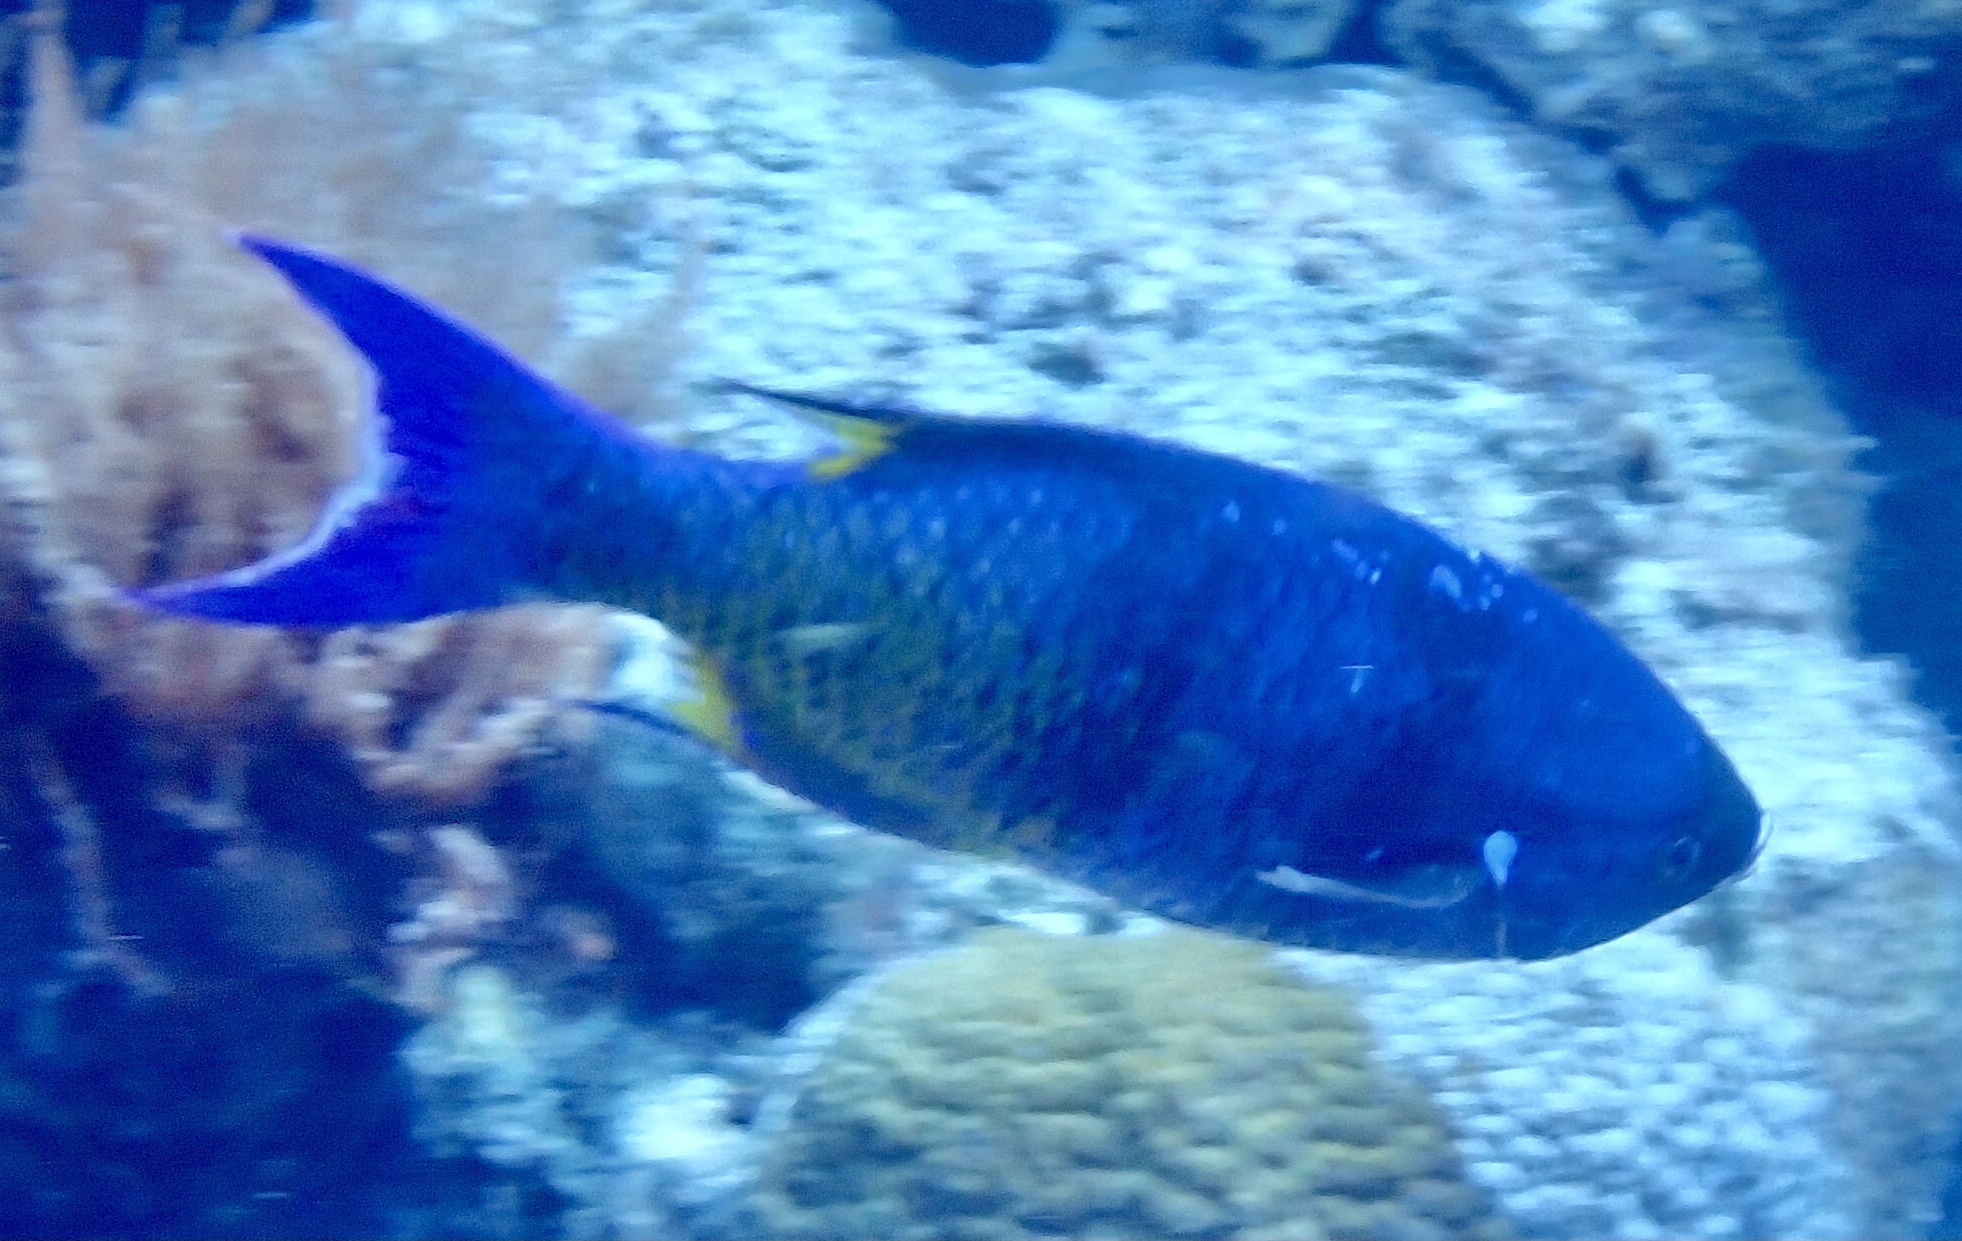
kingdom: Animalia
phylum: Chordata
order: Perciformes
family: Labridae
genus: Bodianus
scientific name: Bodianus
